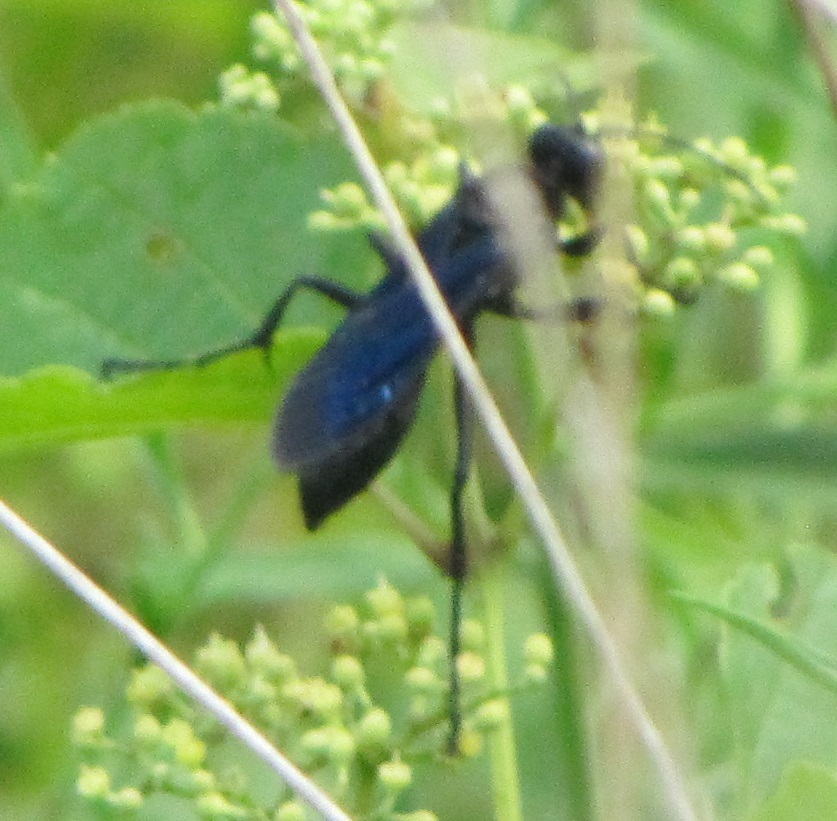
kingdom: Animalia
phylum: Arthropoda
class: Insecta
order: Hymenoptera
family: Sphecidae
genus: Sphex
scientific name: Sphex pensylvanicus
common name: Great black digger wasp
